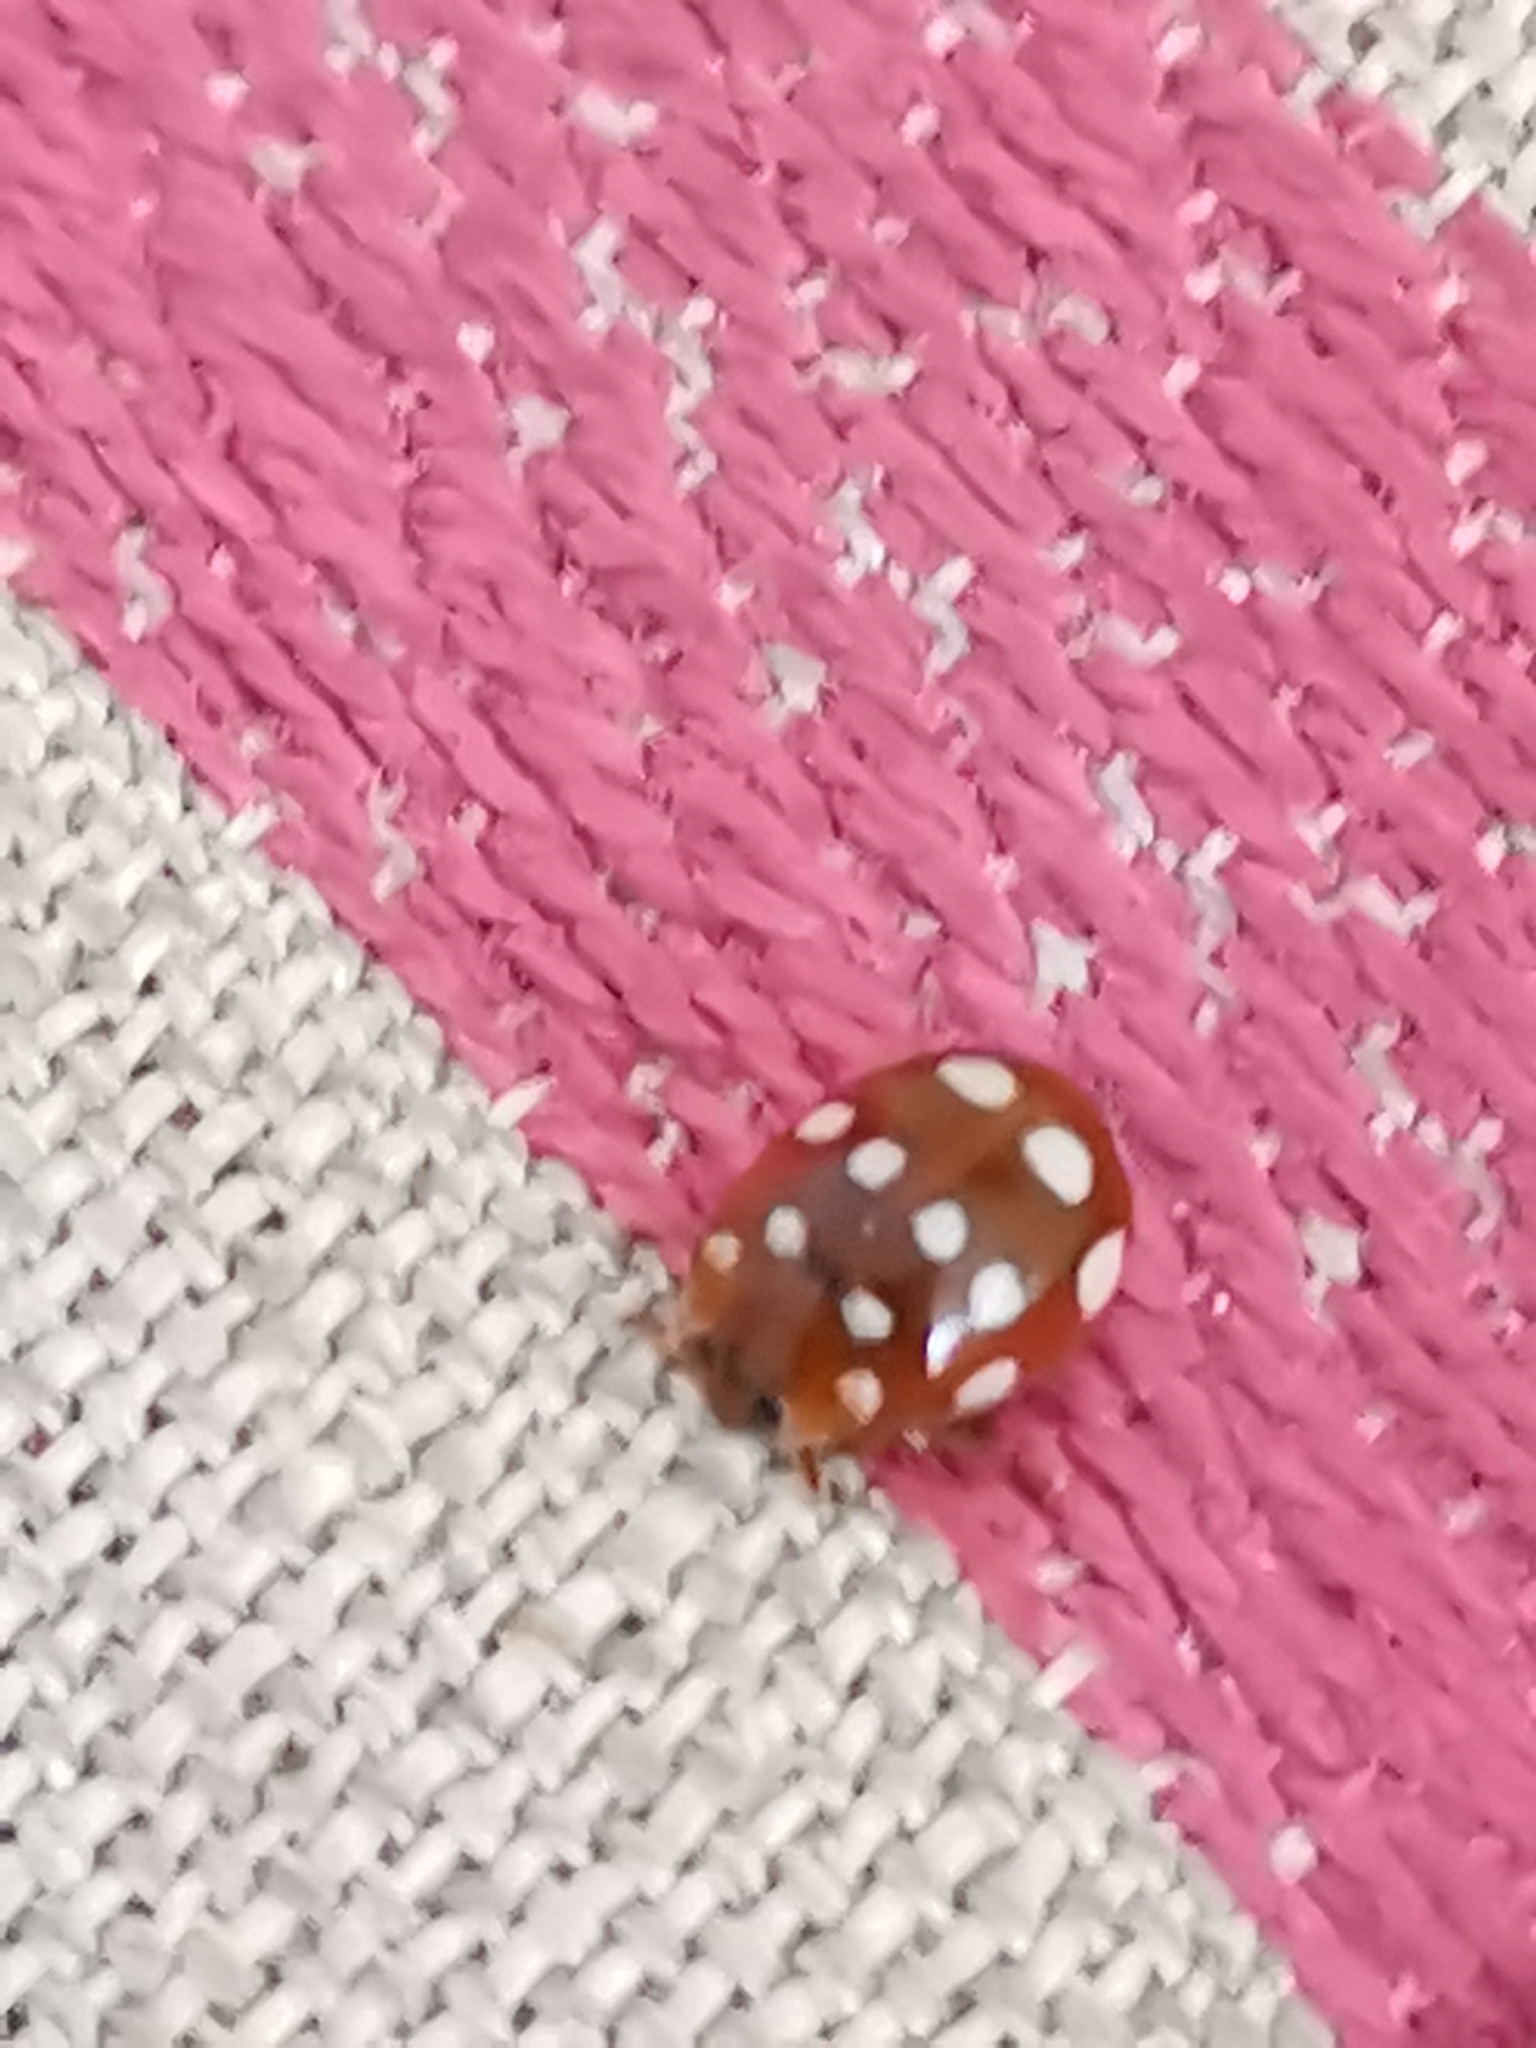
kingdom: Animalia
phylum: Arthropoda
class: Insecta
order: Coleoptera
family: Coccinellidae
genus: Calvia
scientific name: Calvia quatuordecimguttata
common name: Cream-spot ladybird
